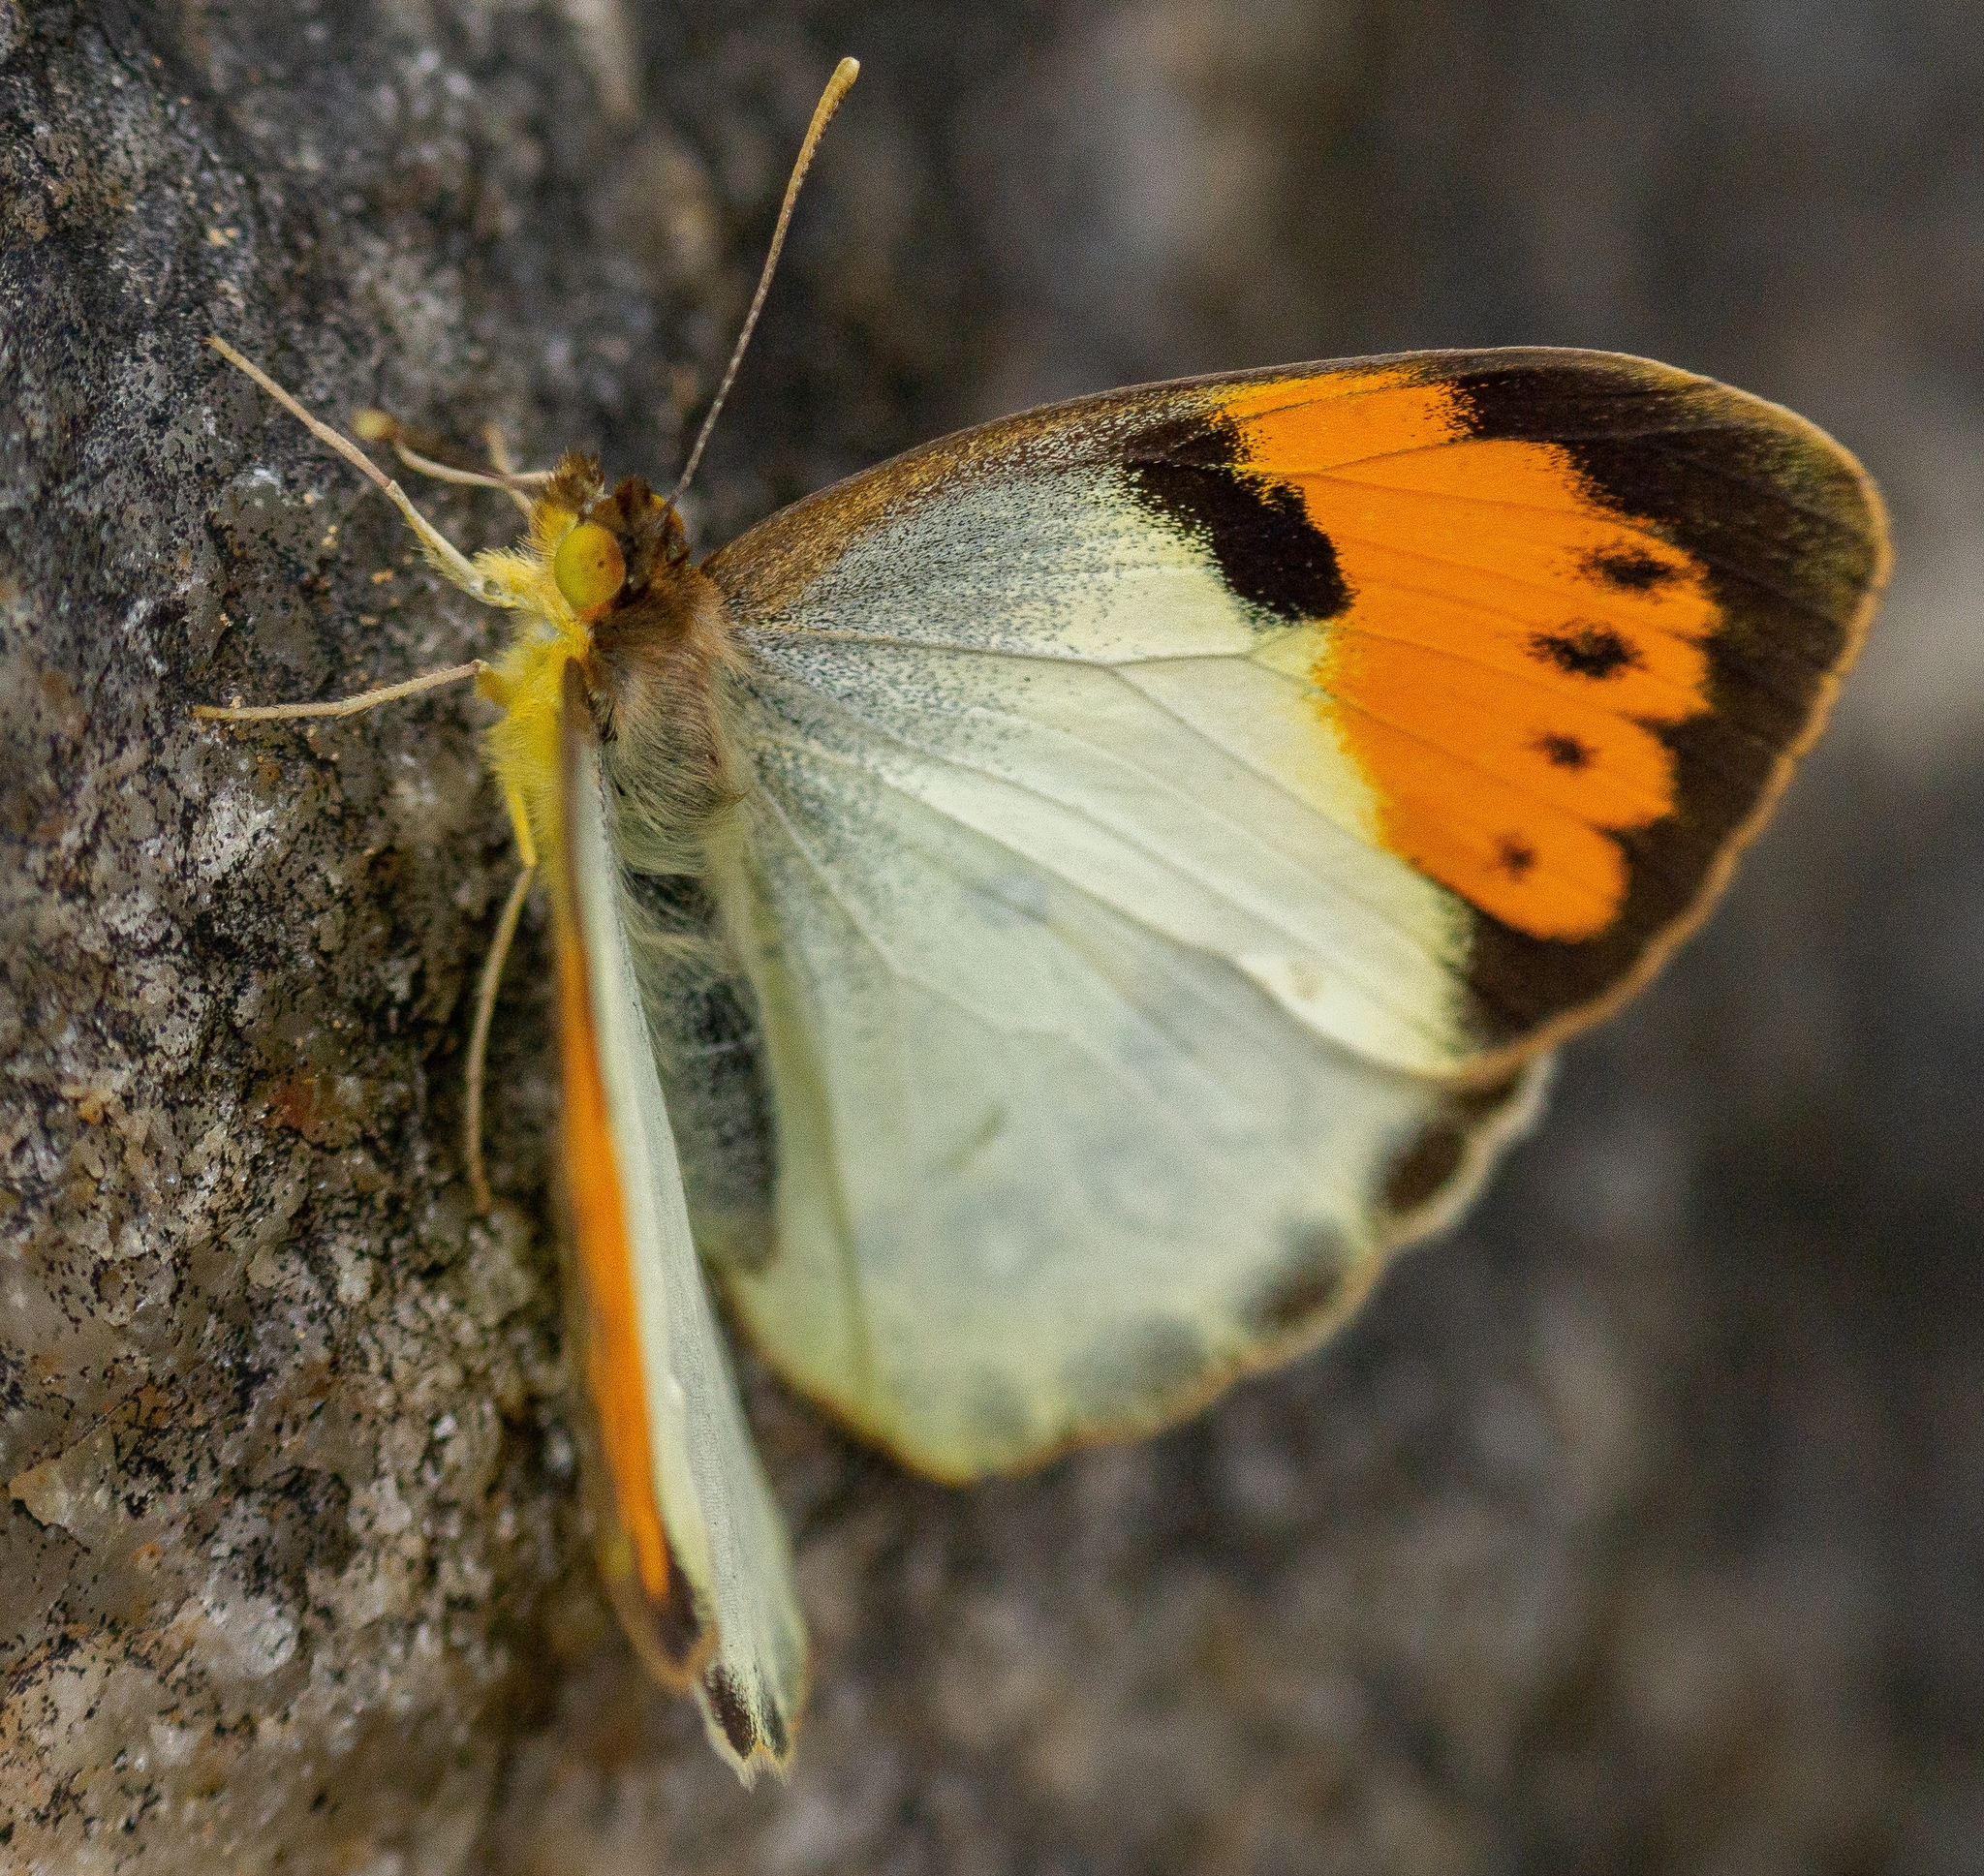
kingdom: Animalia
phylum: Arthropoda
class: Insecta
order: Lepidoptera
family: Pieridae
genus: Ixias
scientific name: Ixias marianne
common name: White orange tip
